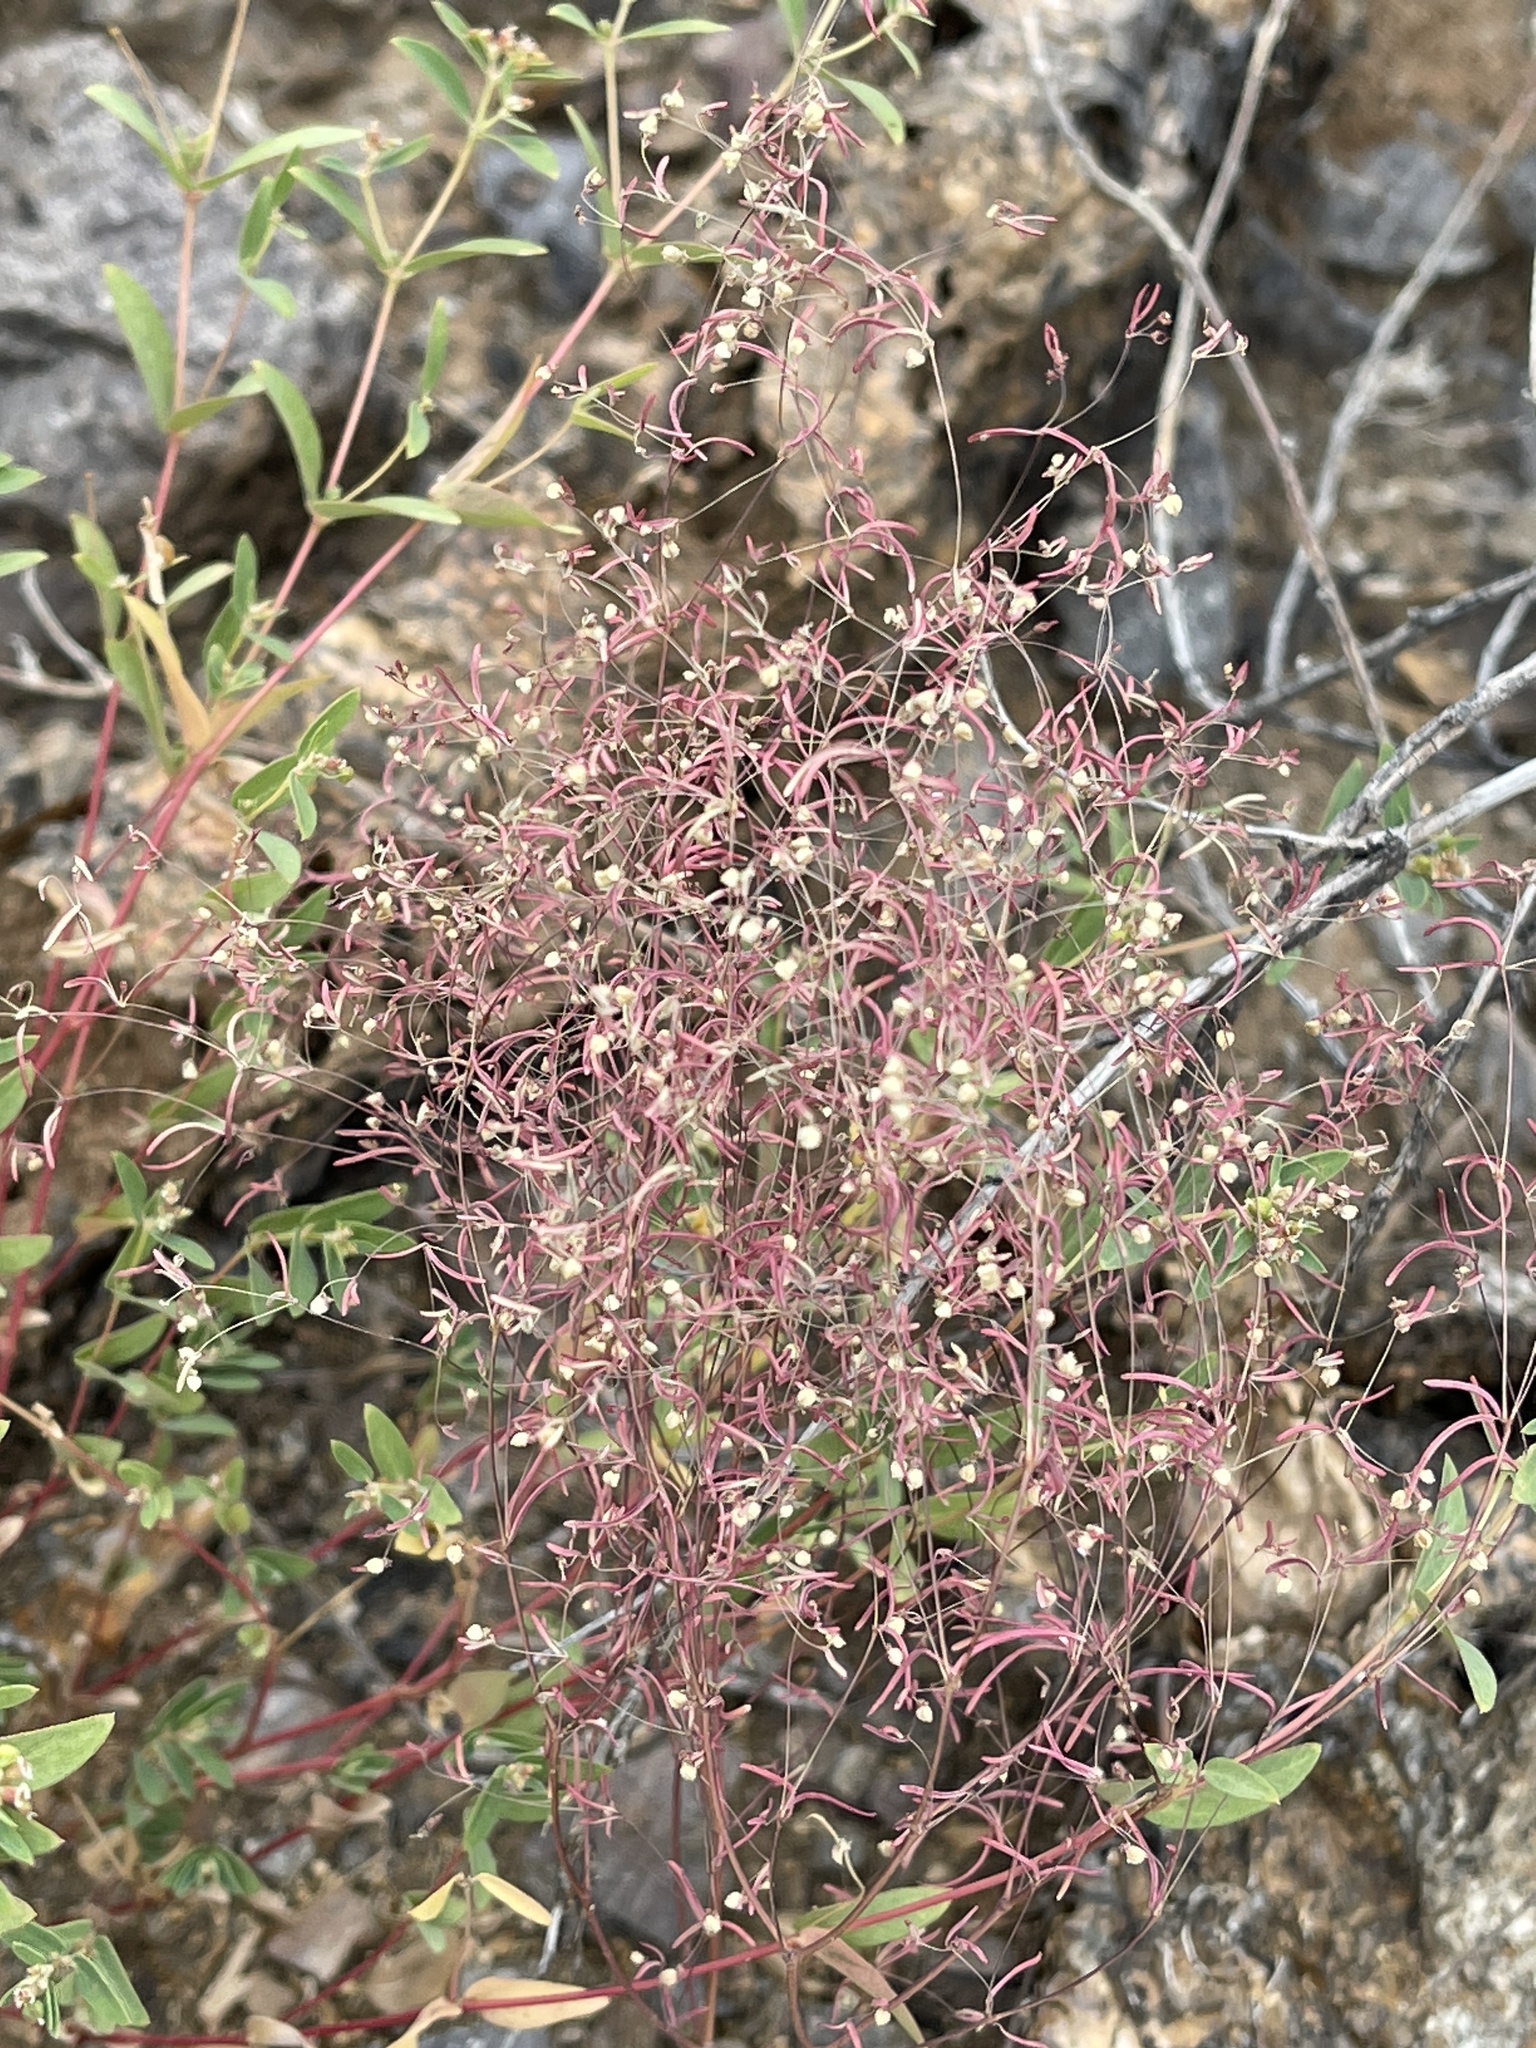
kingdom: Plantae
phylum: Tracheophyta
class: Magnoliopsida
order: Malpighiales
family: Euphorbiaceae
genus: Euphorbia
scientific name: Euphorbia gracillima
